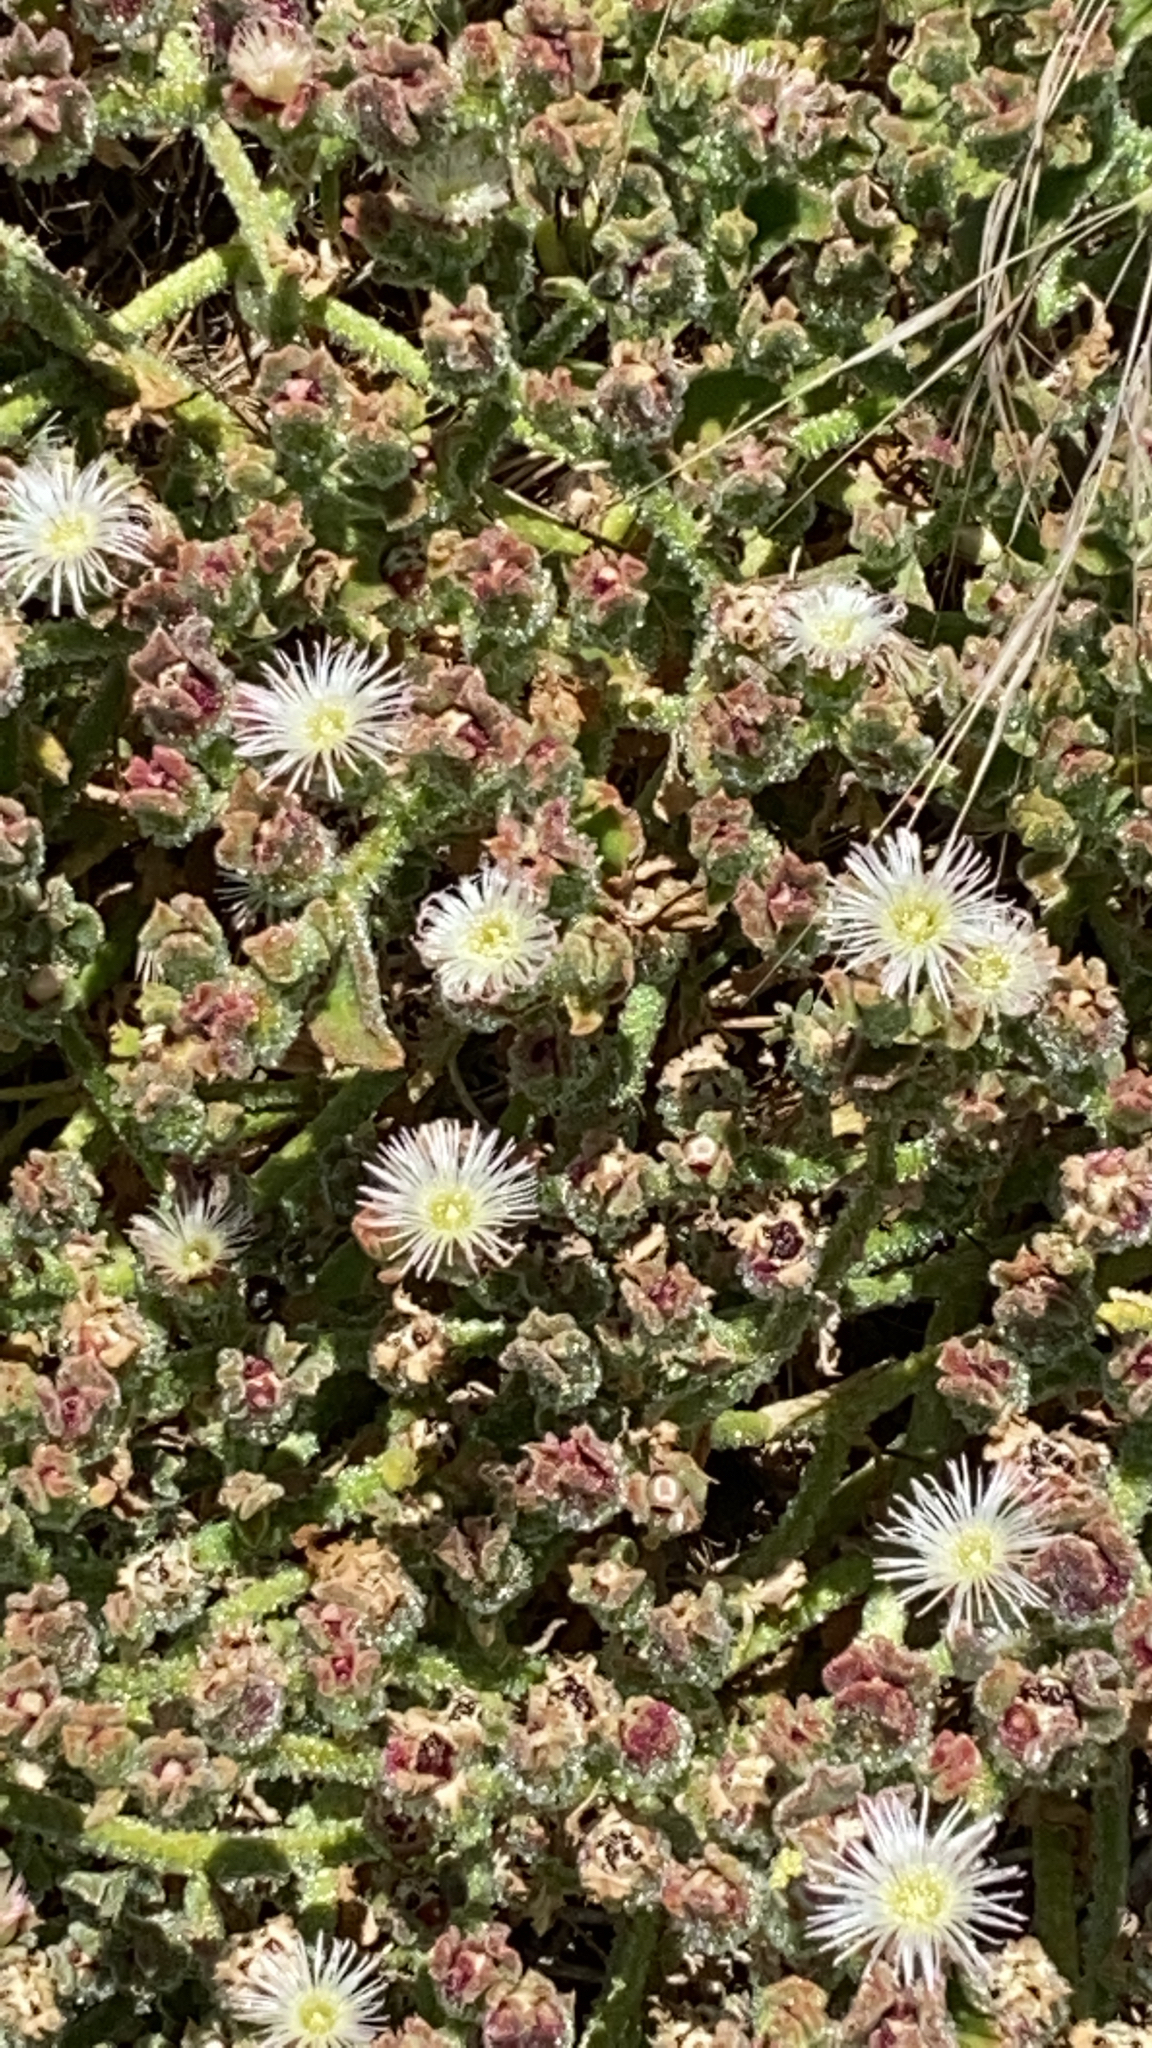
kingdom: Plantae
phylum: Tracheophyta
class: Magnoliopsida
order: Caryophyllales
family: Aizoaceae
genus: Mesembryanthemum
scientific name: Mesembryanthemum crystallinum
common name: Common iceplant
